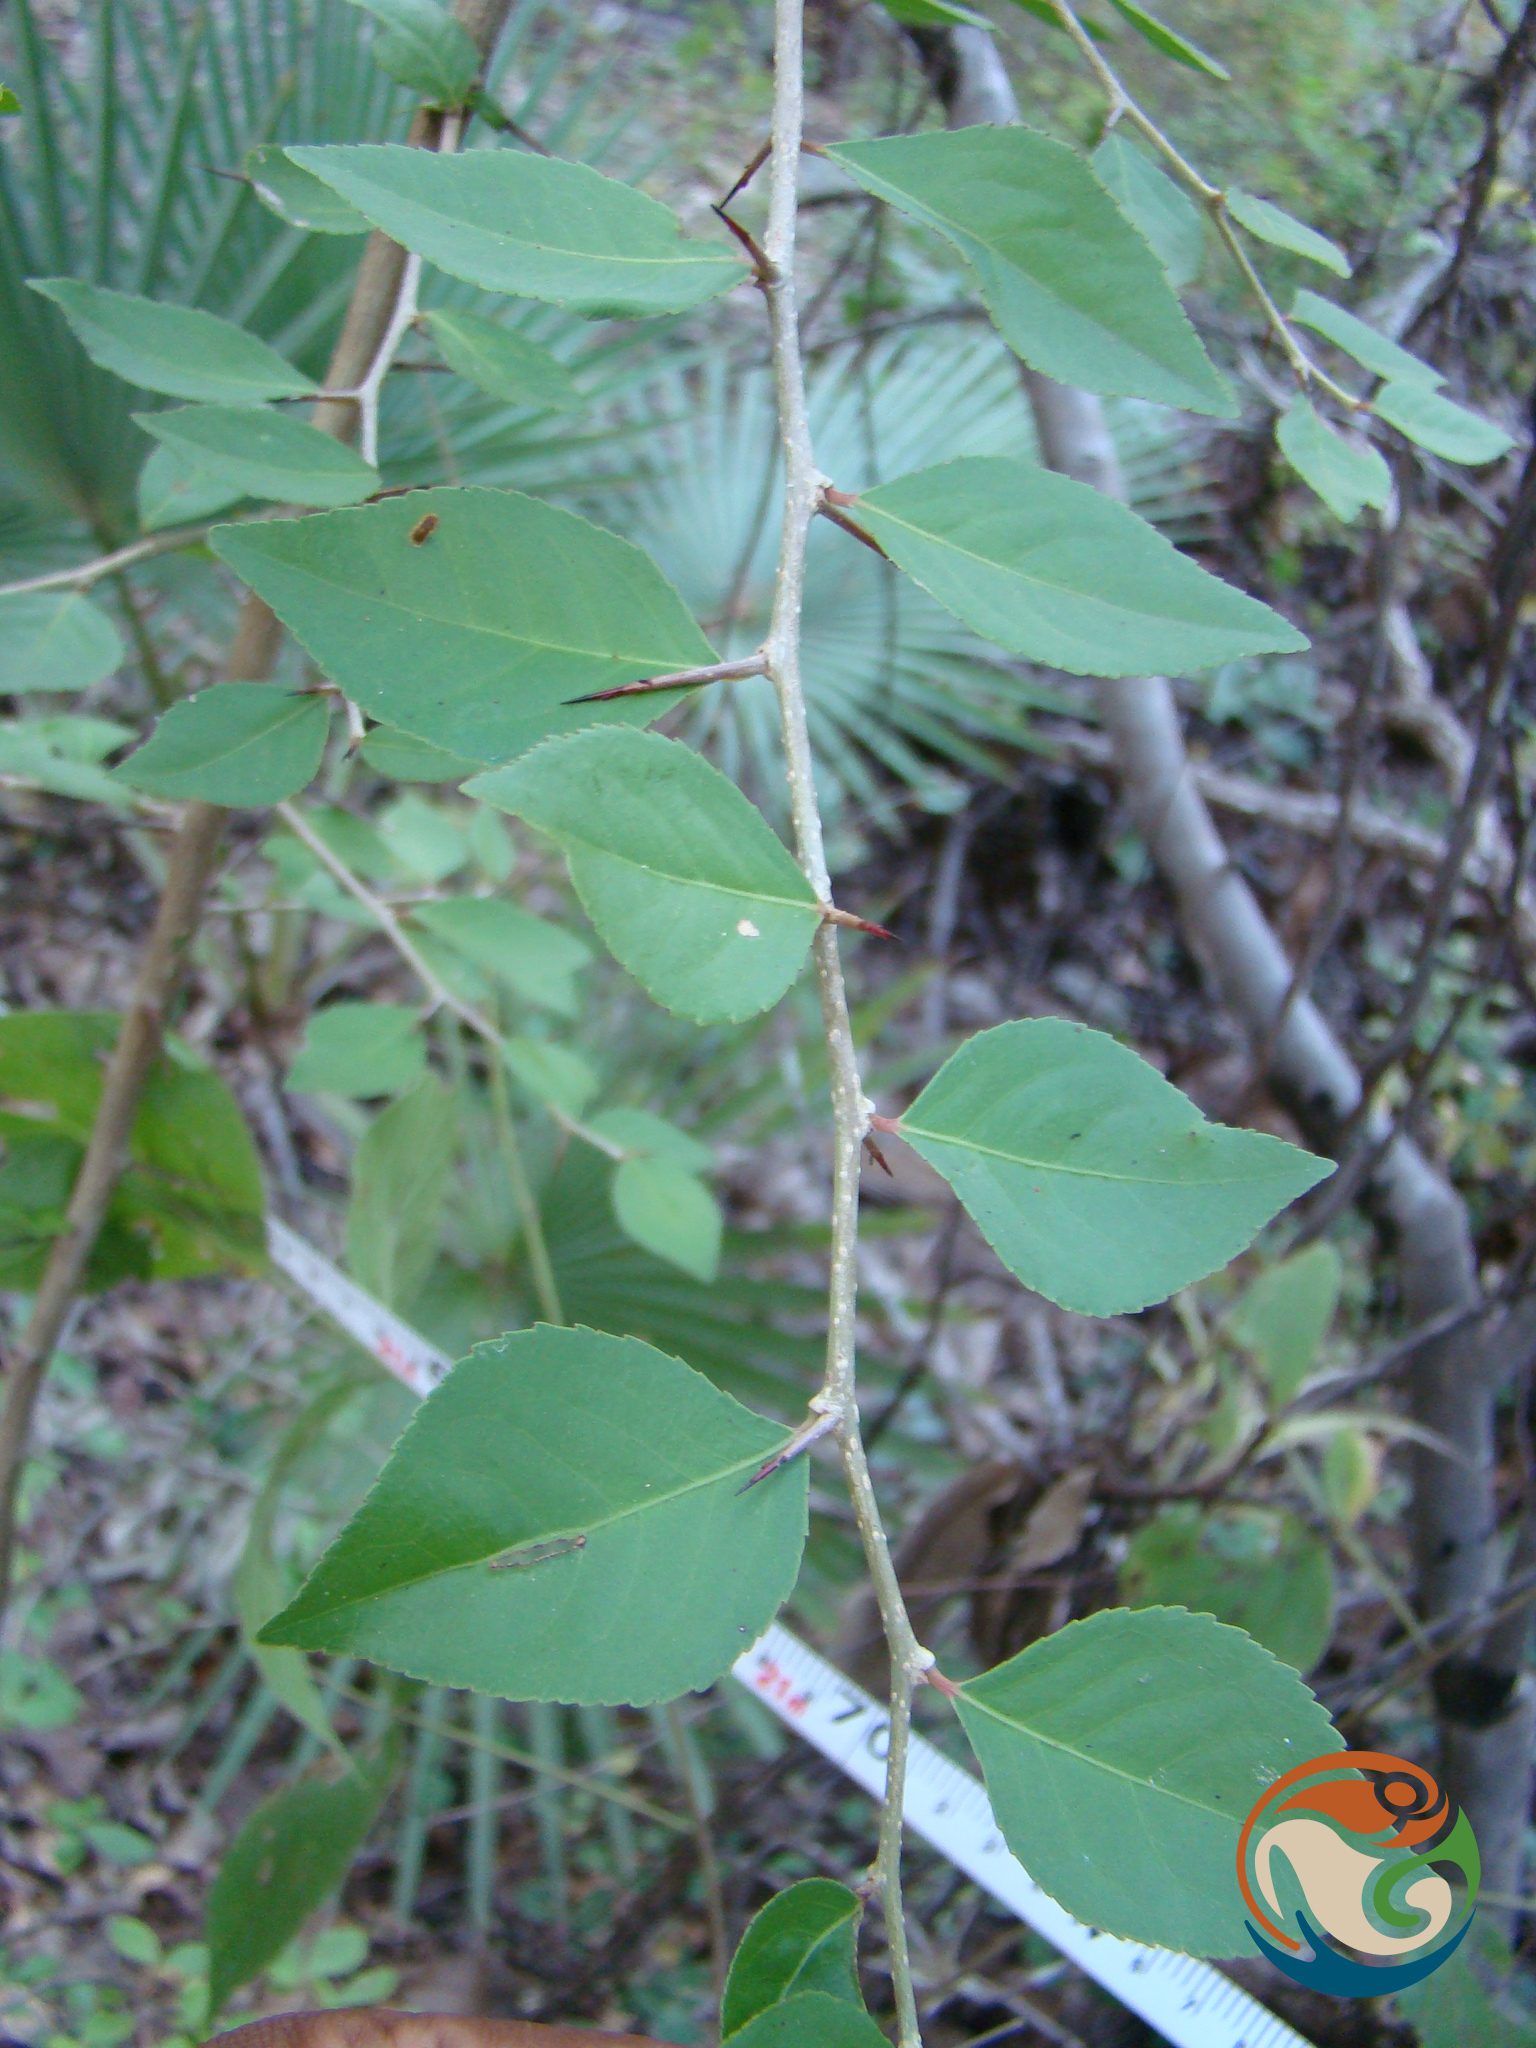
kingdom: Plantae
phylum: Tracheophyta
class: Magnoliopsida
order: Malpighiales
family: Salicaceae
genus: Xylosma
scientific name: Xylosma flexuosa
